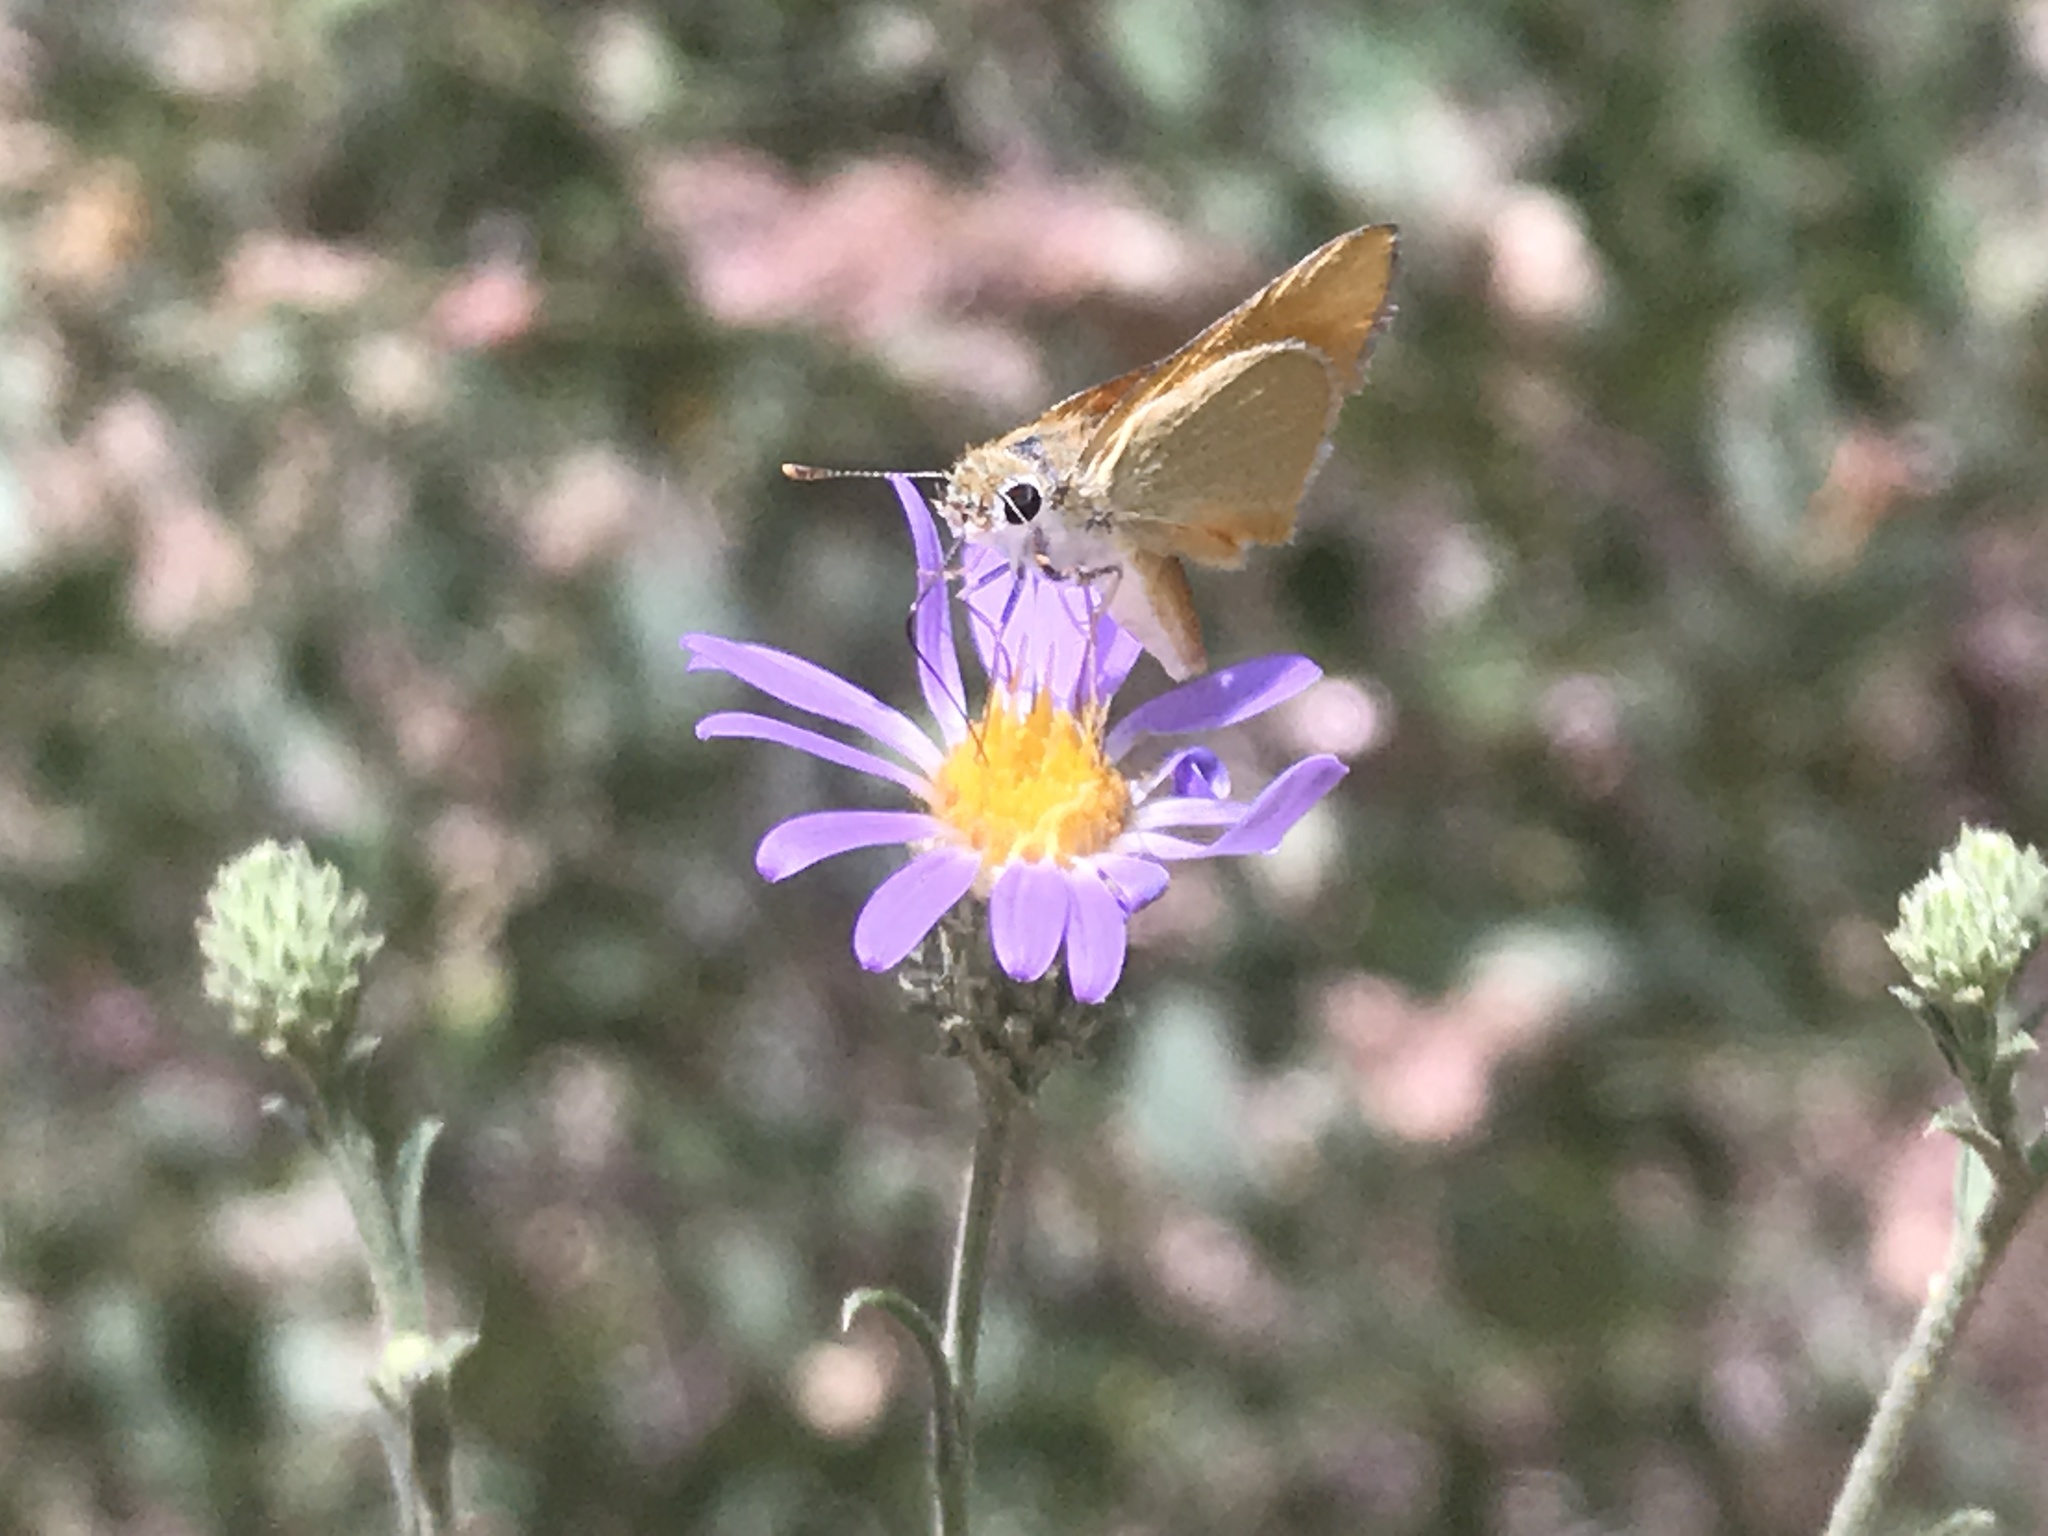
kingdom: Animalia
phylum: Arthropoda
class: Insecta
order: Lepidoptera
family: Hesperiidae
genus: Copaeodes
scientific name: Copaeodes aurantiaca
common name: Orange skipperling
